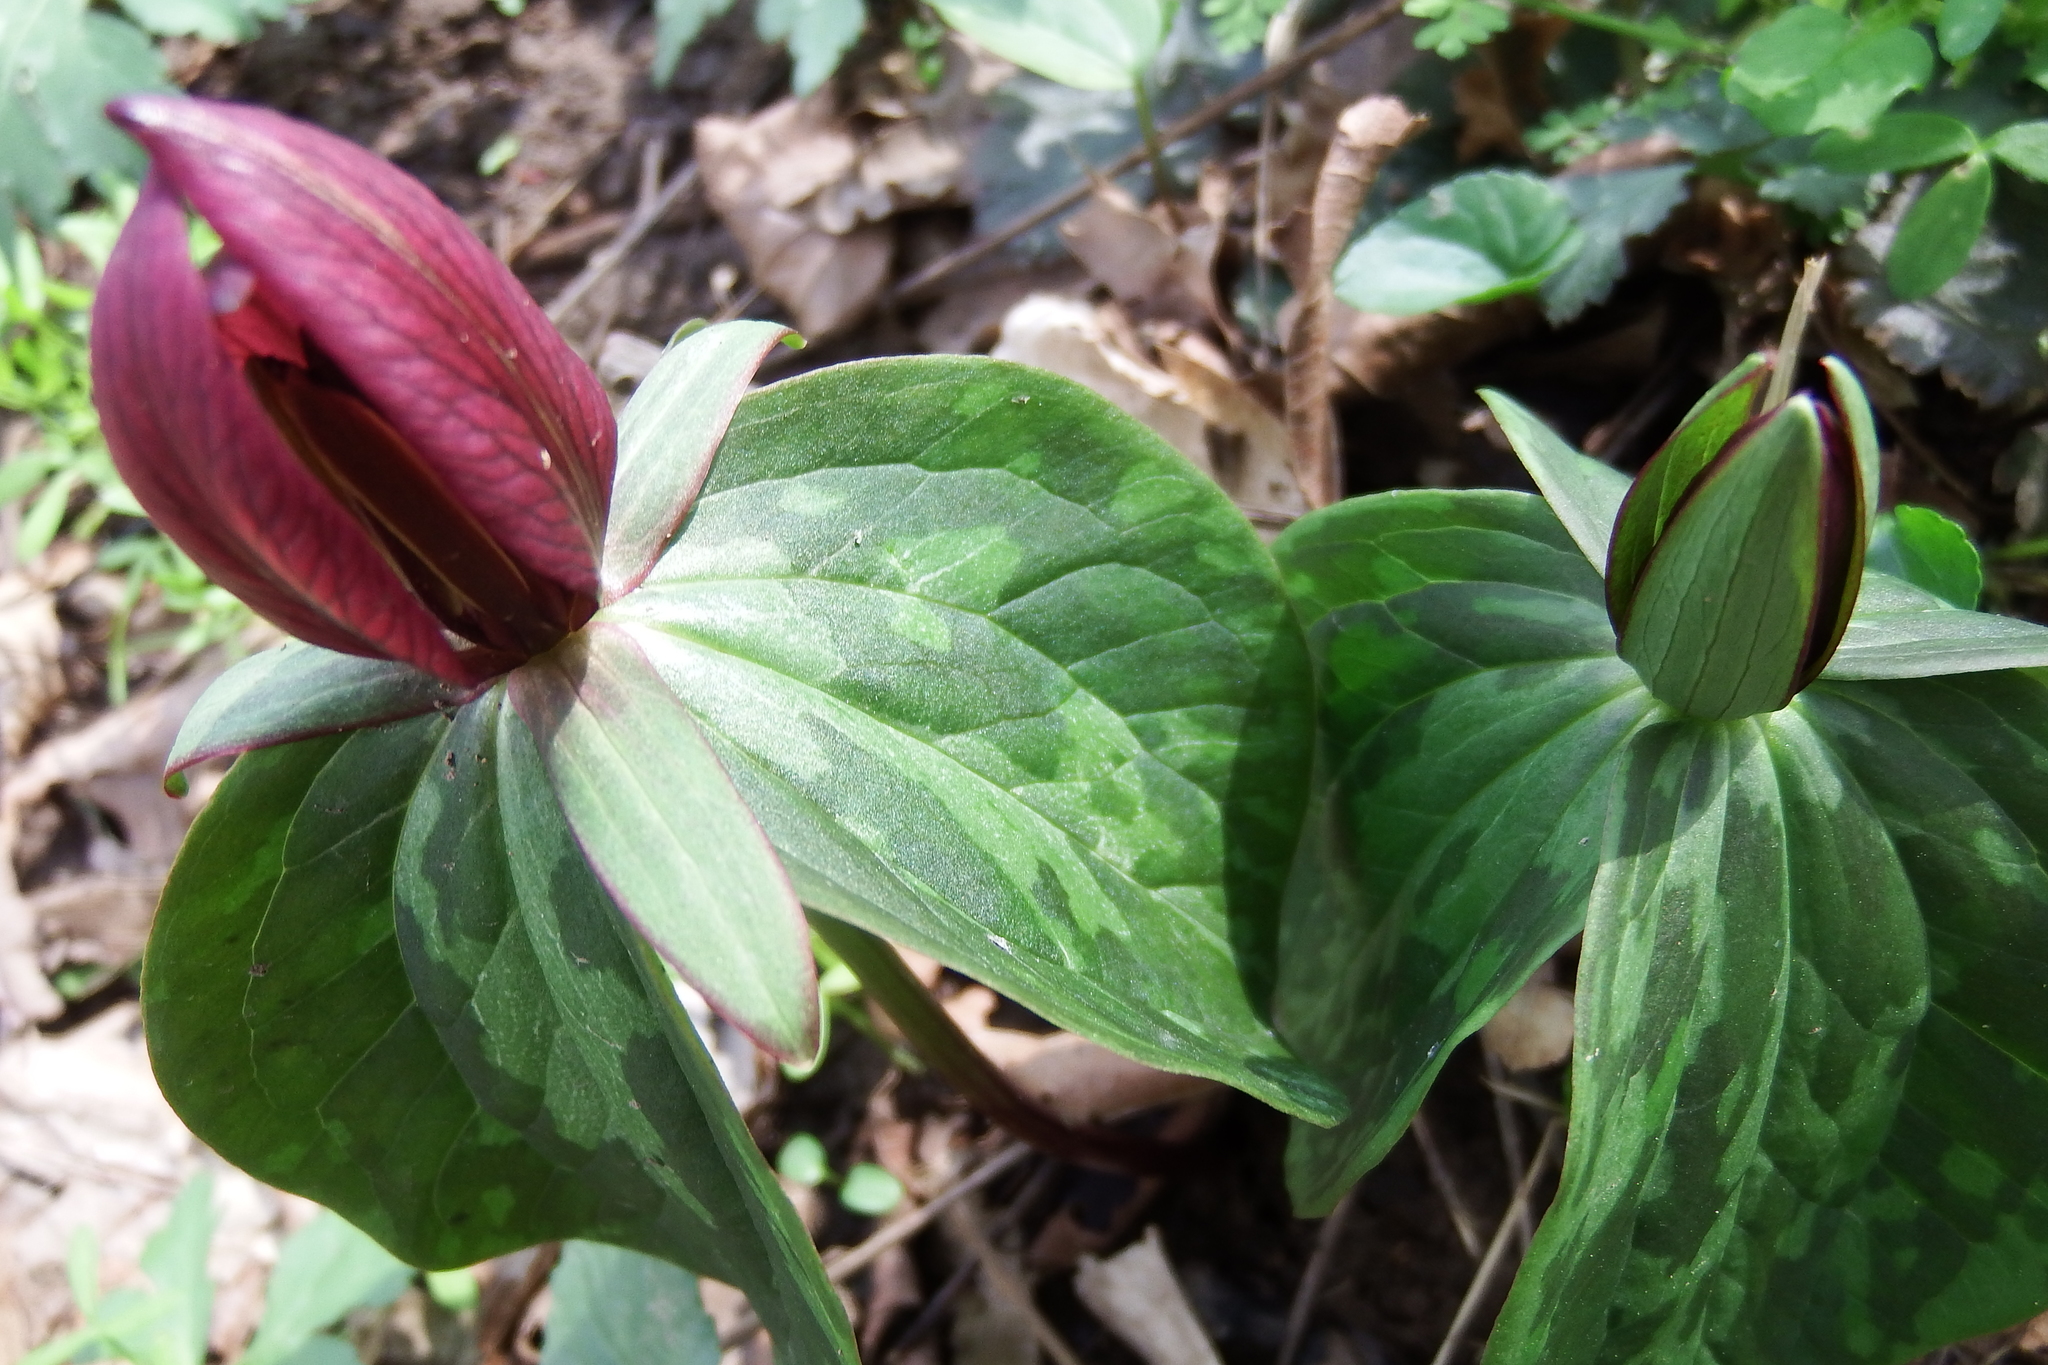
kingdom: Plantae
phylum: Tracheophyta
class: Liliopsida
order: Liliales
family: Melanthiaceae
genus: Trillium
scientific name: Trillium sessile
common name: Sessile trillium
